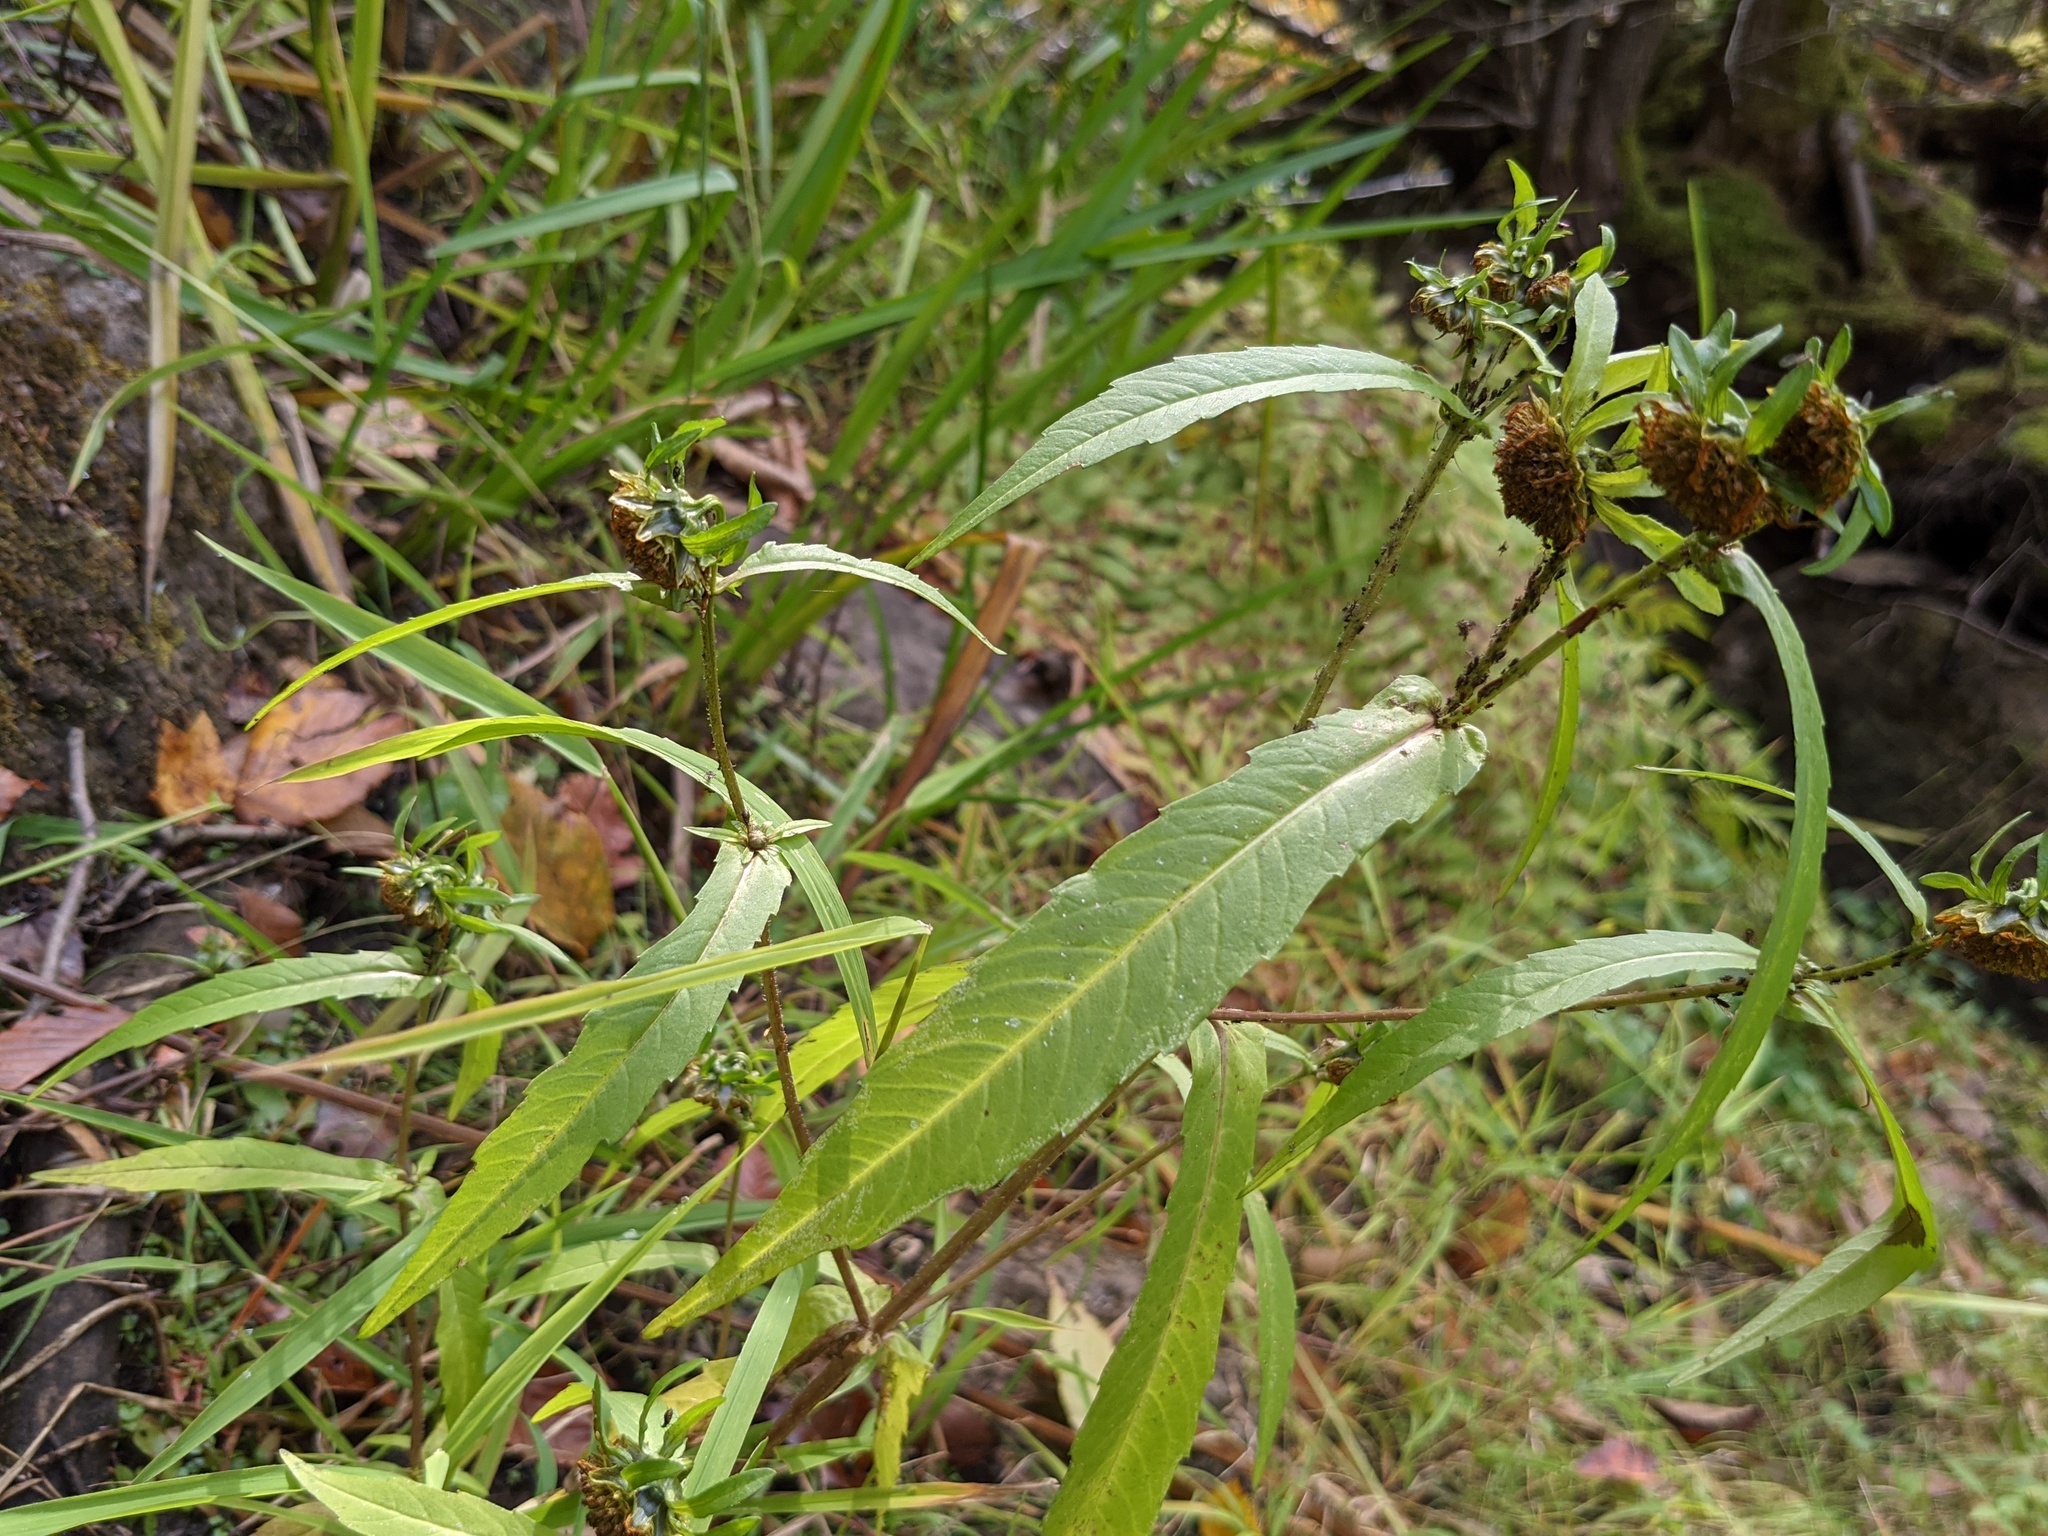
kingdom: Plantae
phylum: Tracheophyta
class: Magnoliopsida
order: Asterales
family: Asteraceae
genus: Bidens
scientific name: Bidens cernua
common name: Nodding bur-marigold
